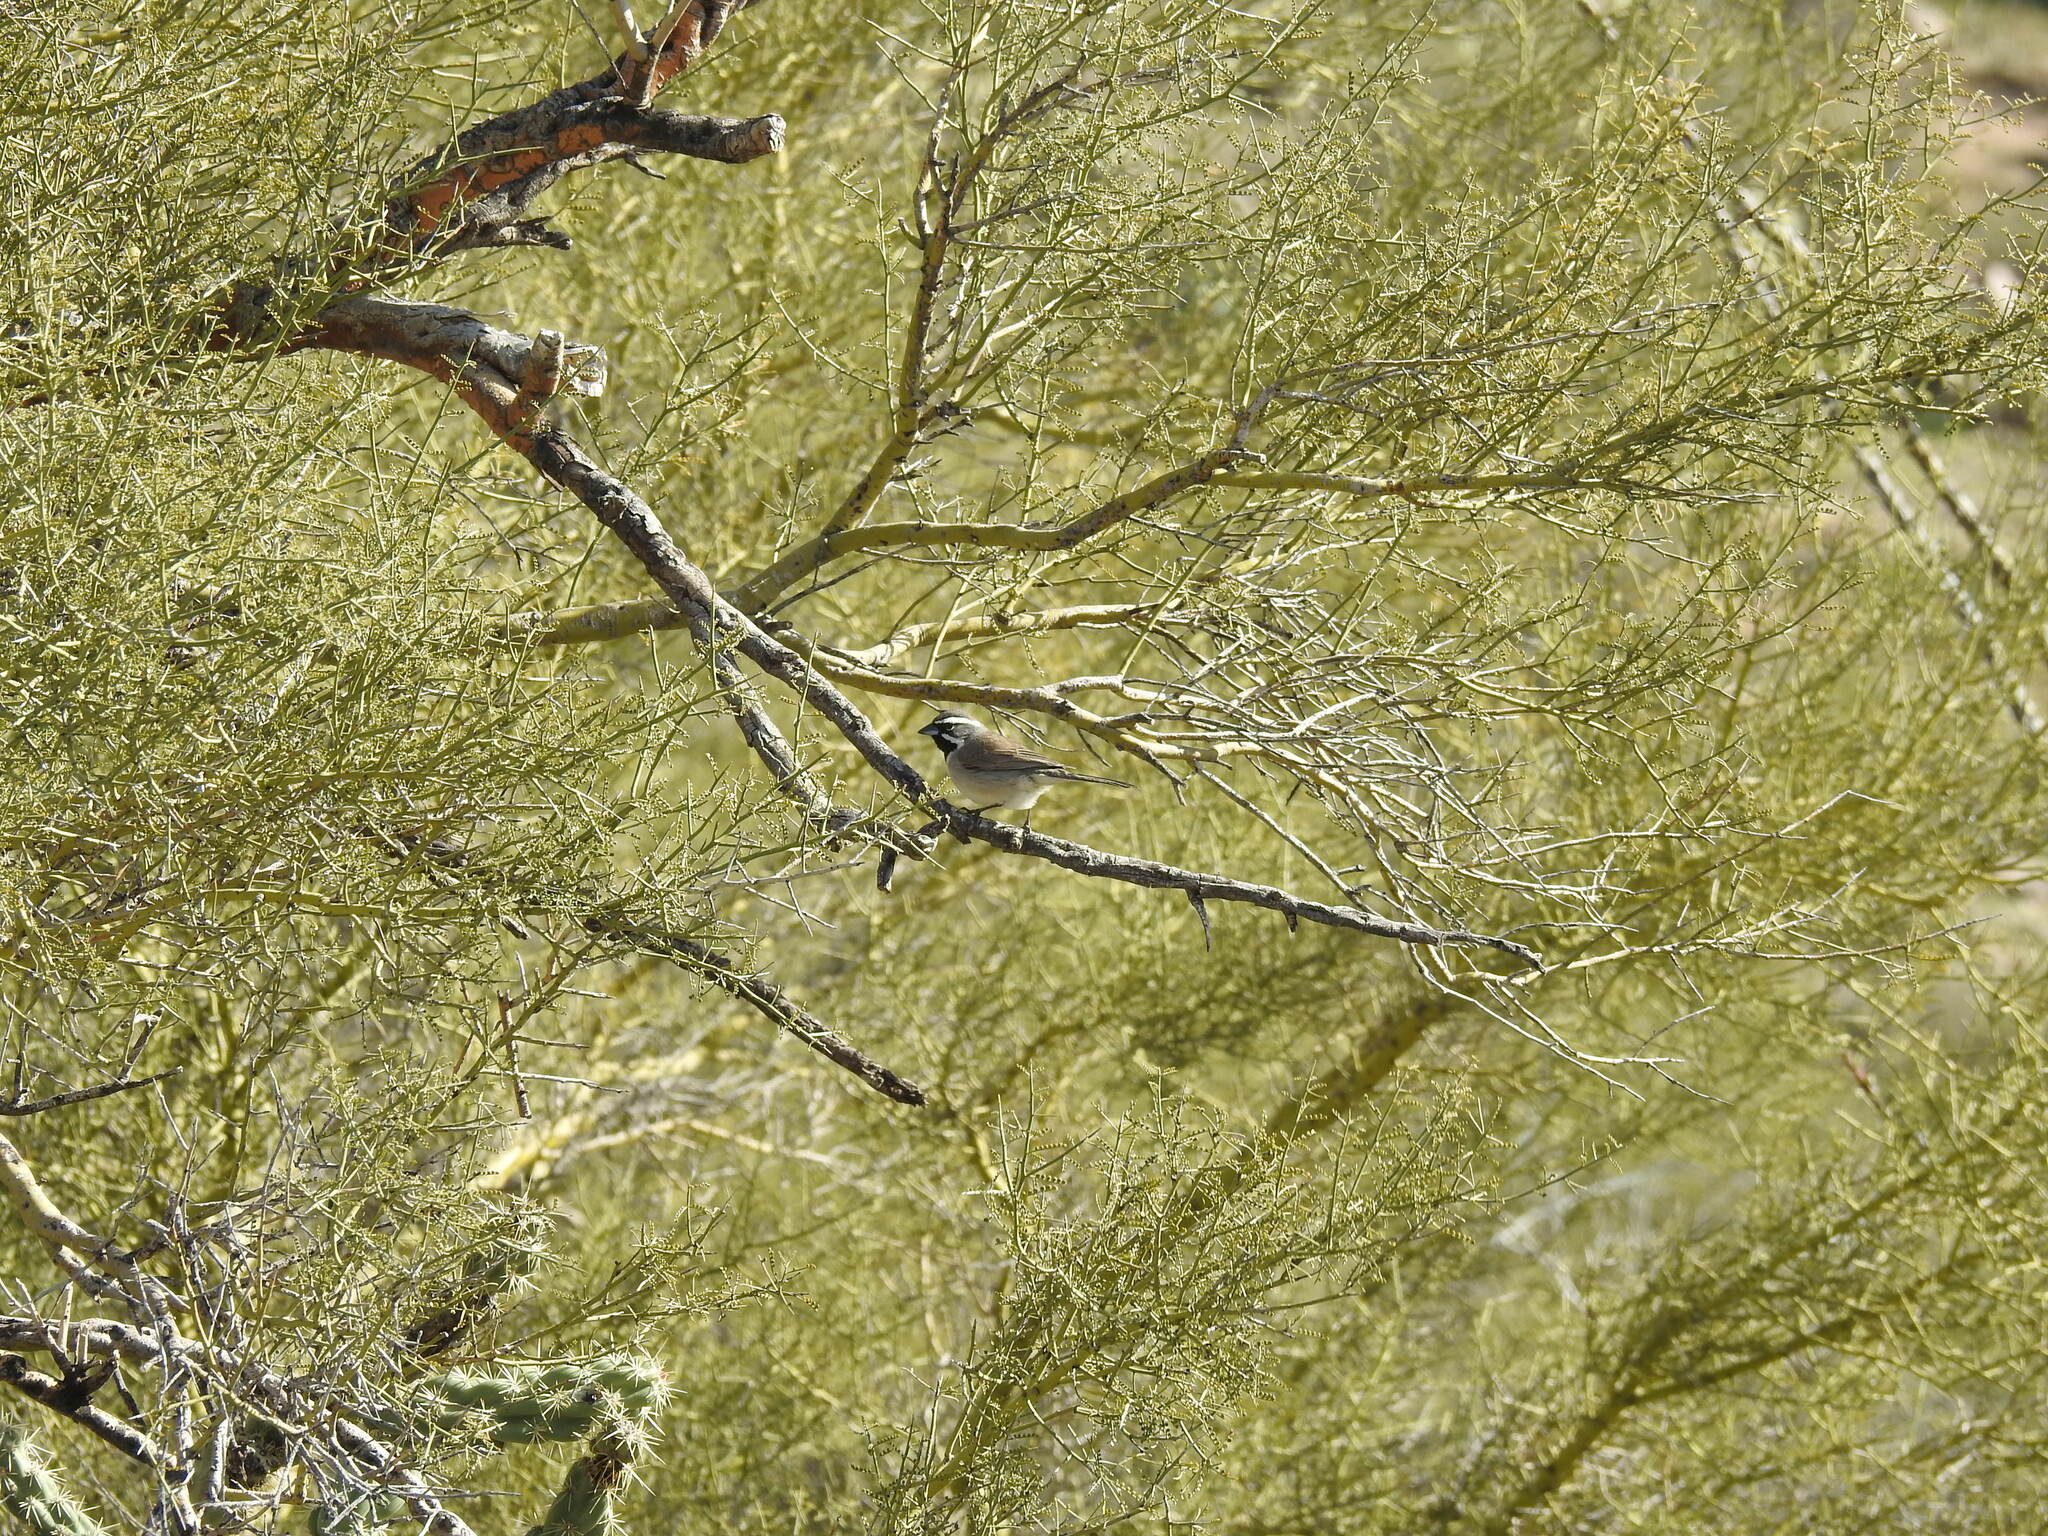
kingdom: Animalia
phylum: Chordata
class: Aves
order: Passeriformes
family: Passerellidae
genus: Amphispiza
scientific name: Amphispiza bilineata
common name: Black-throated sparrow
